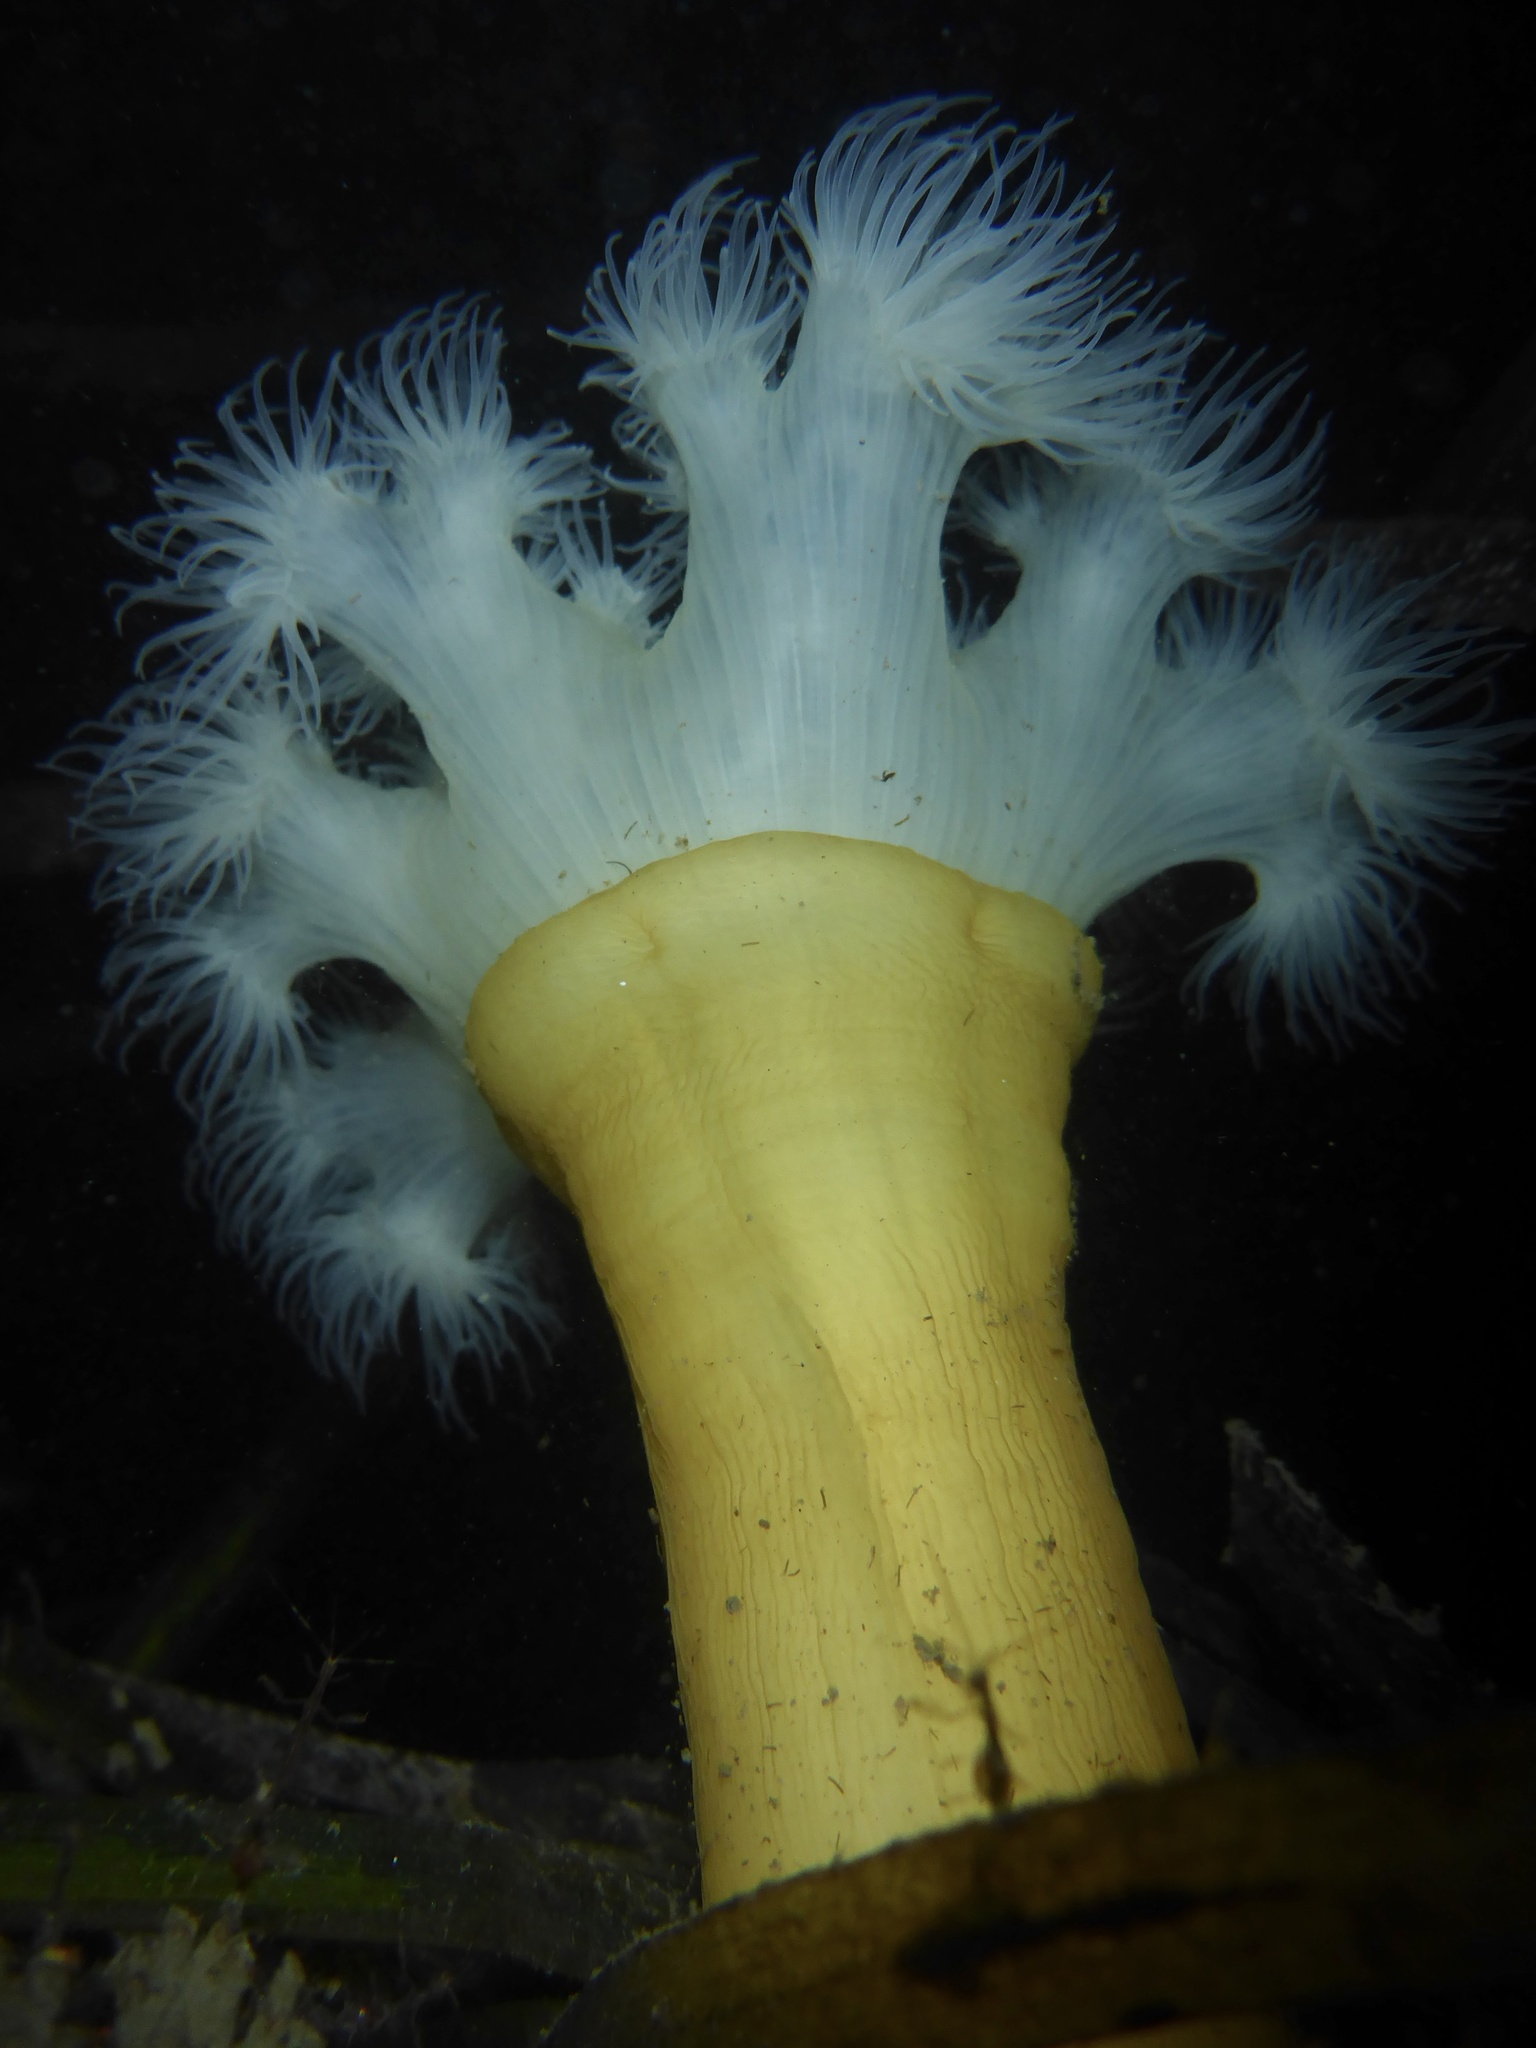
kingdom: Animalia
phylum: Cnidaria
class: Anthozoa
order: Actiniaria
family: Metridiidae
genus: Metridium
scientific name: Metridium farcimen
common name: Gigantic anemone
